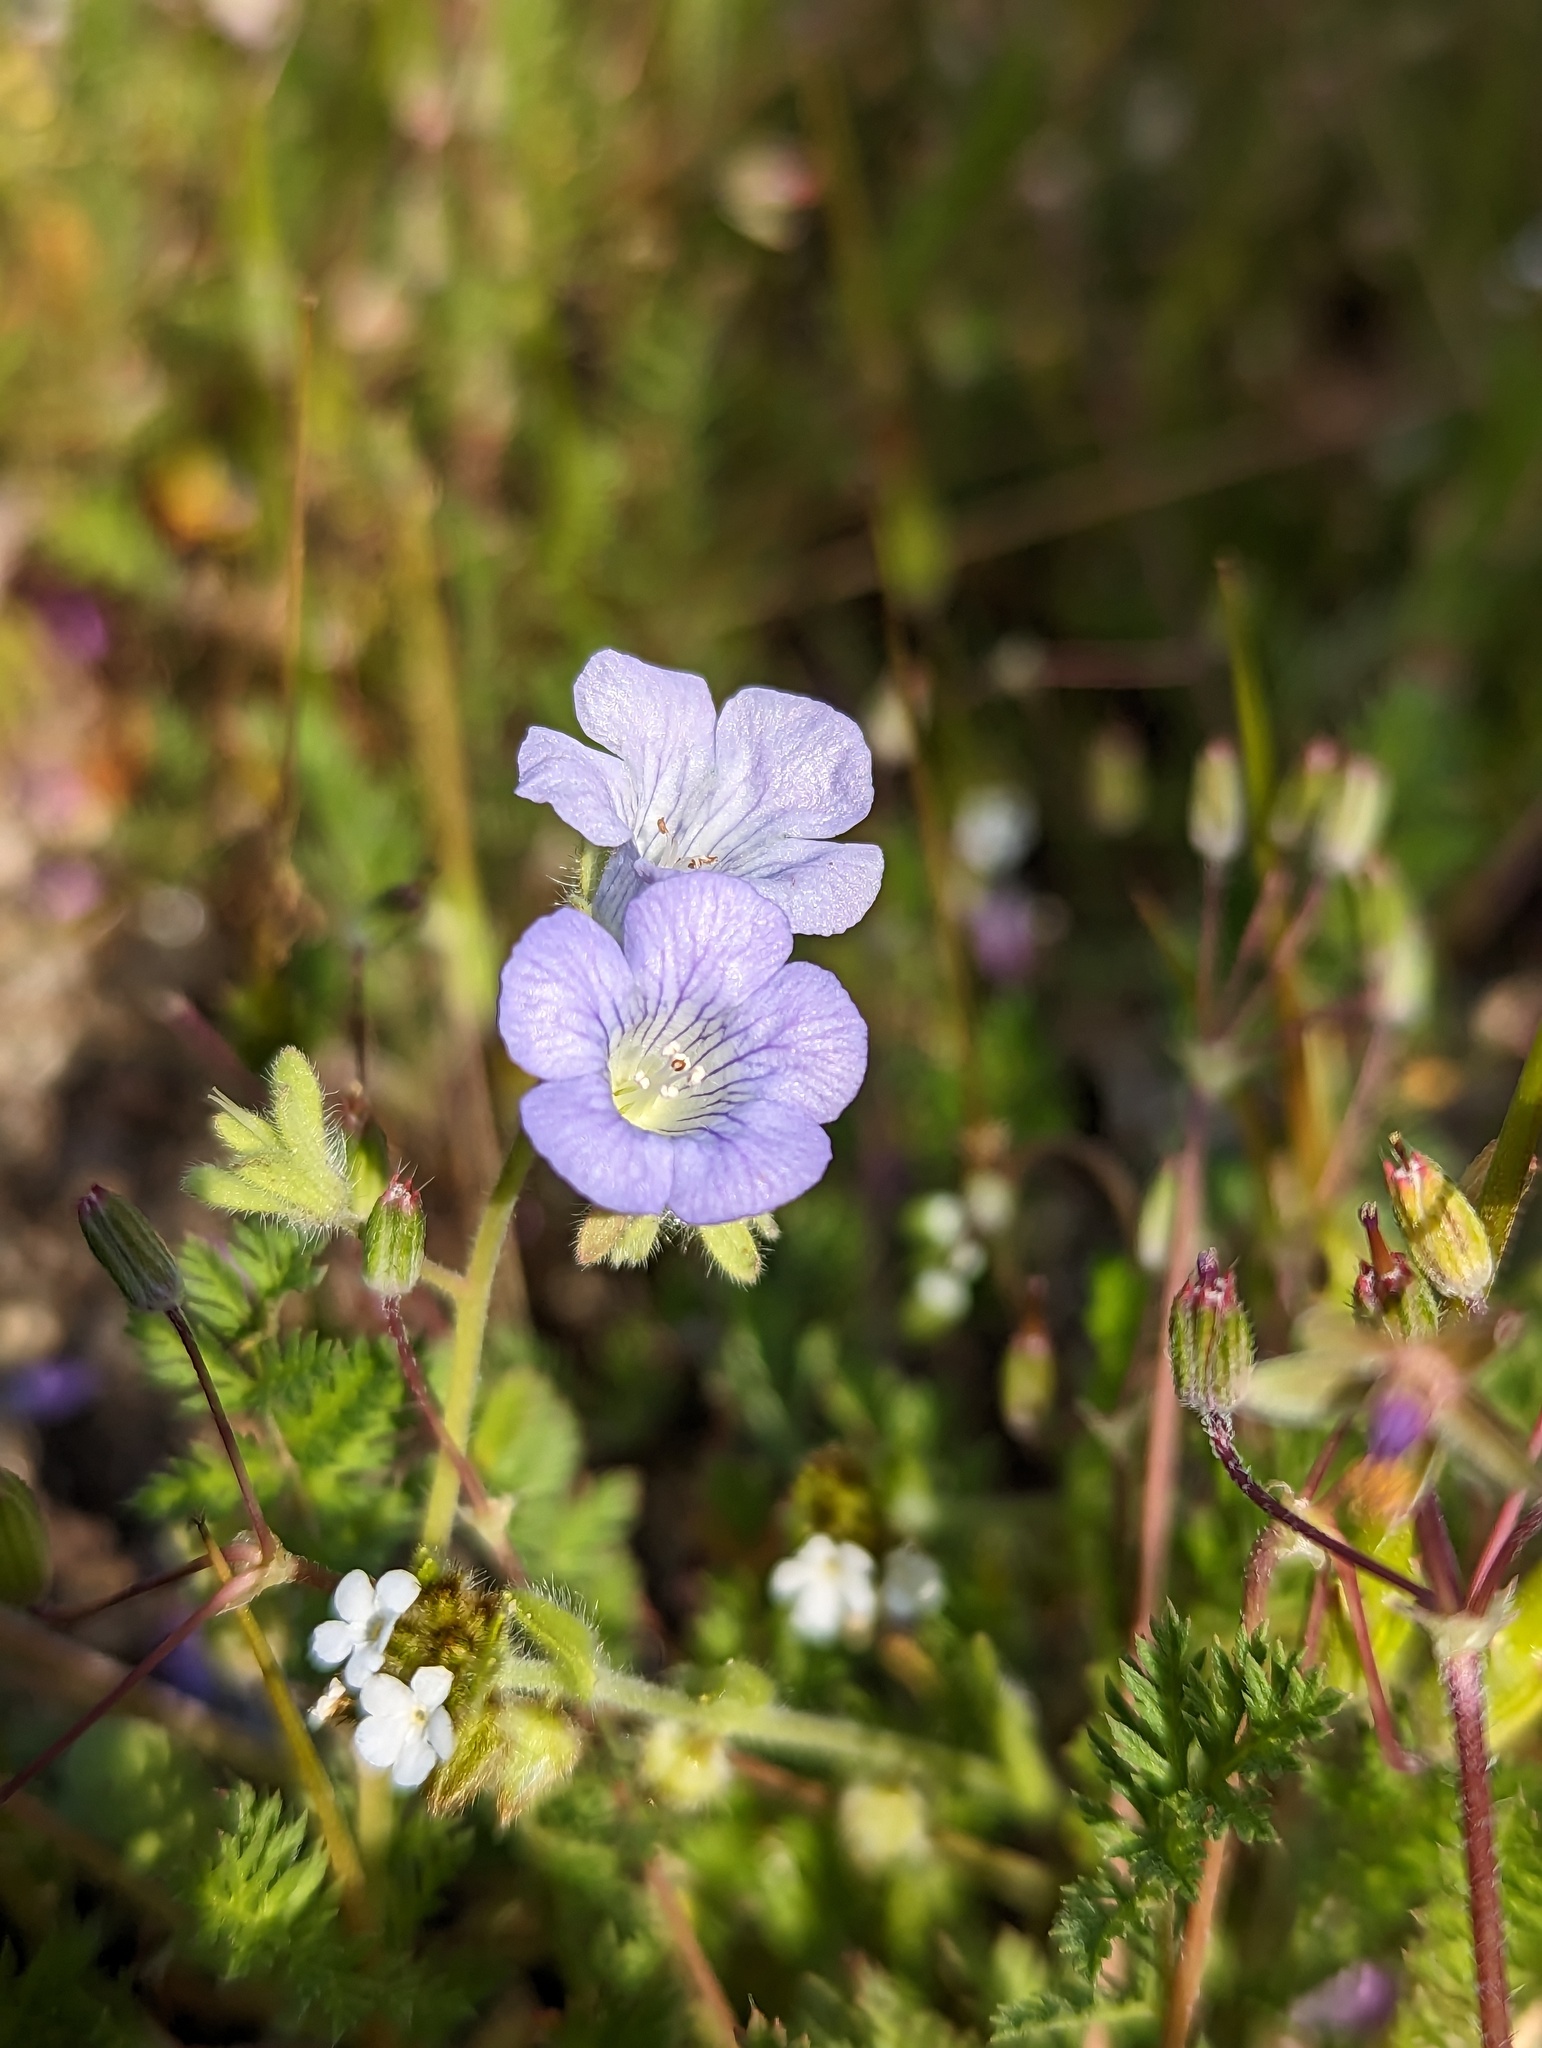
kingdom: Plantae
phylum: Tracheophyta
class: Magnoliopsida
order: Boraginales
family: Hydrophyllaceae
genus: Phacelia
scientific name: Phacelia douglasii
